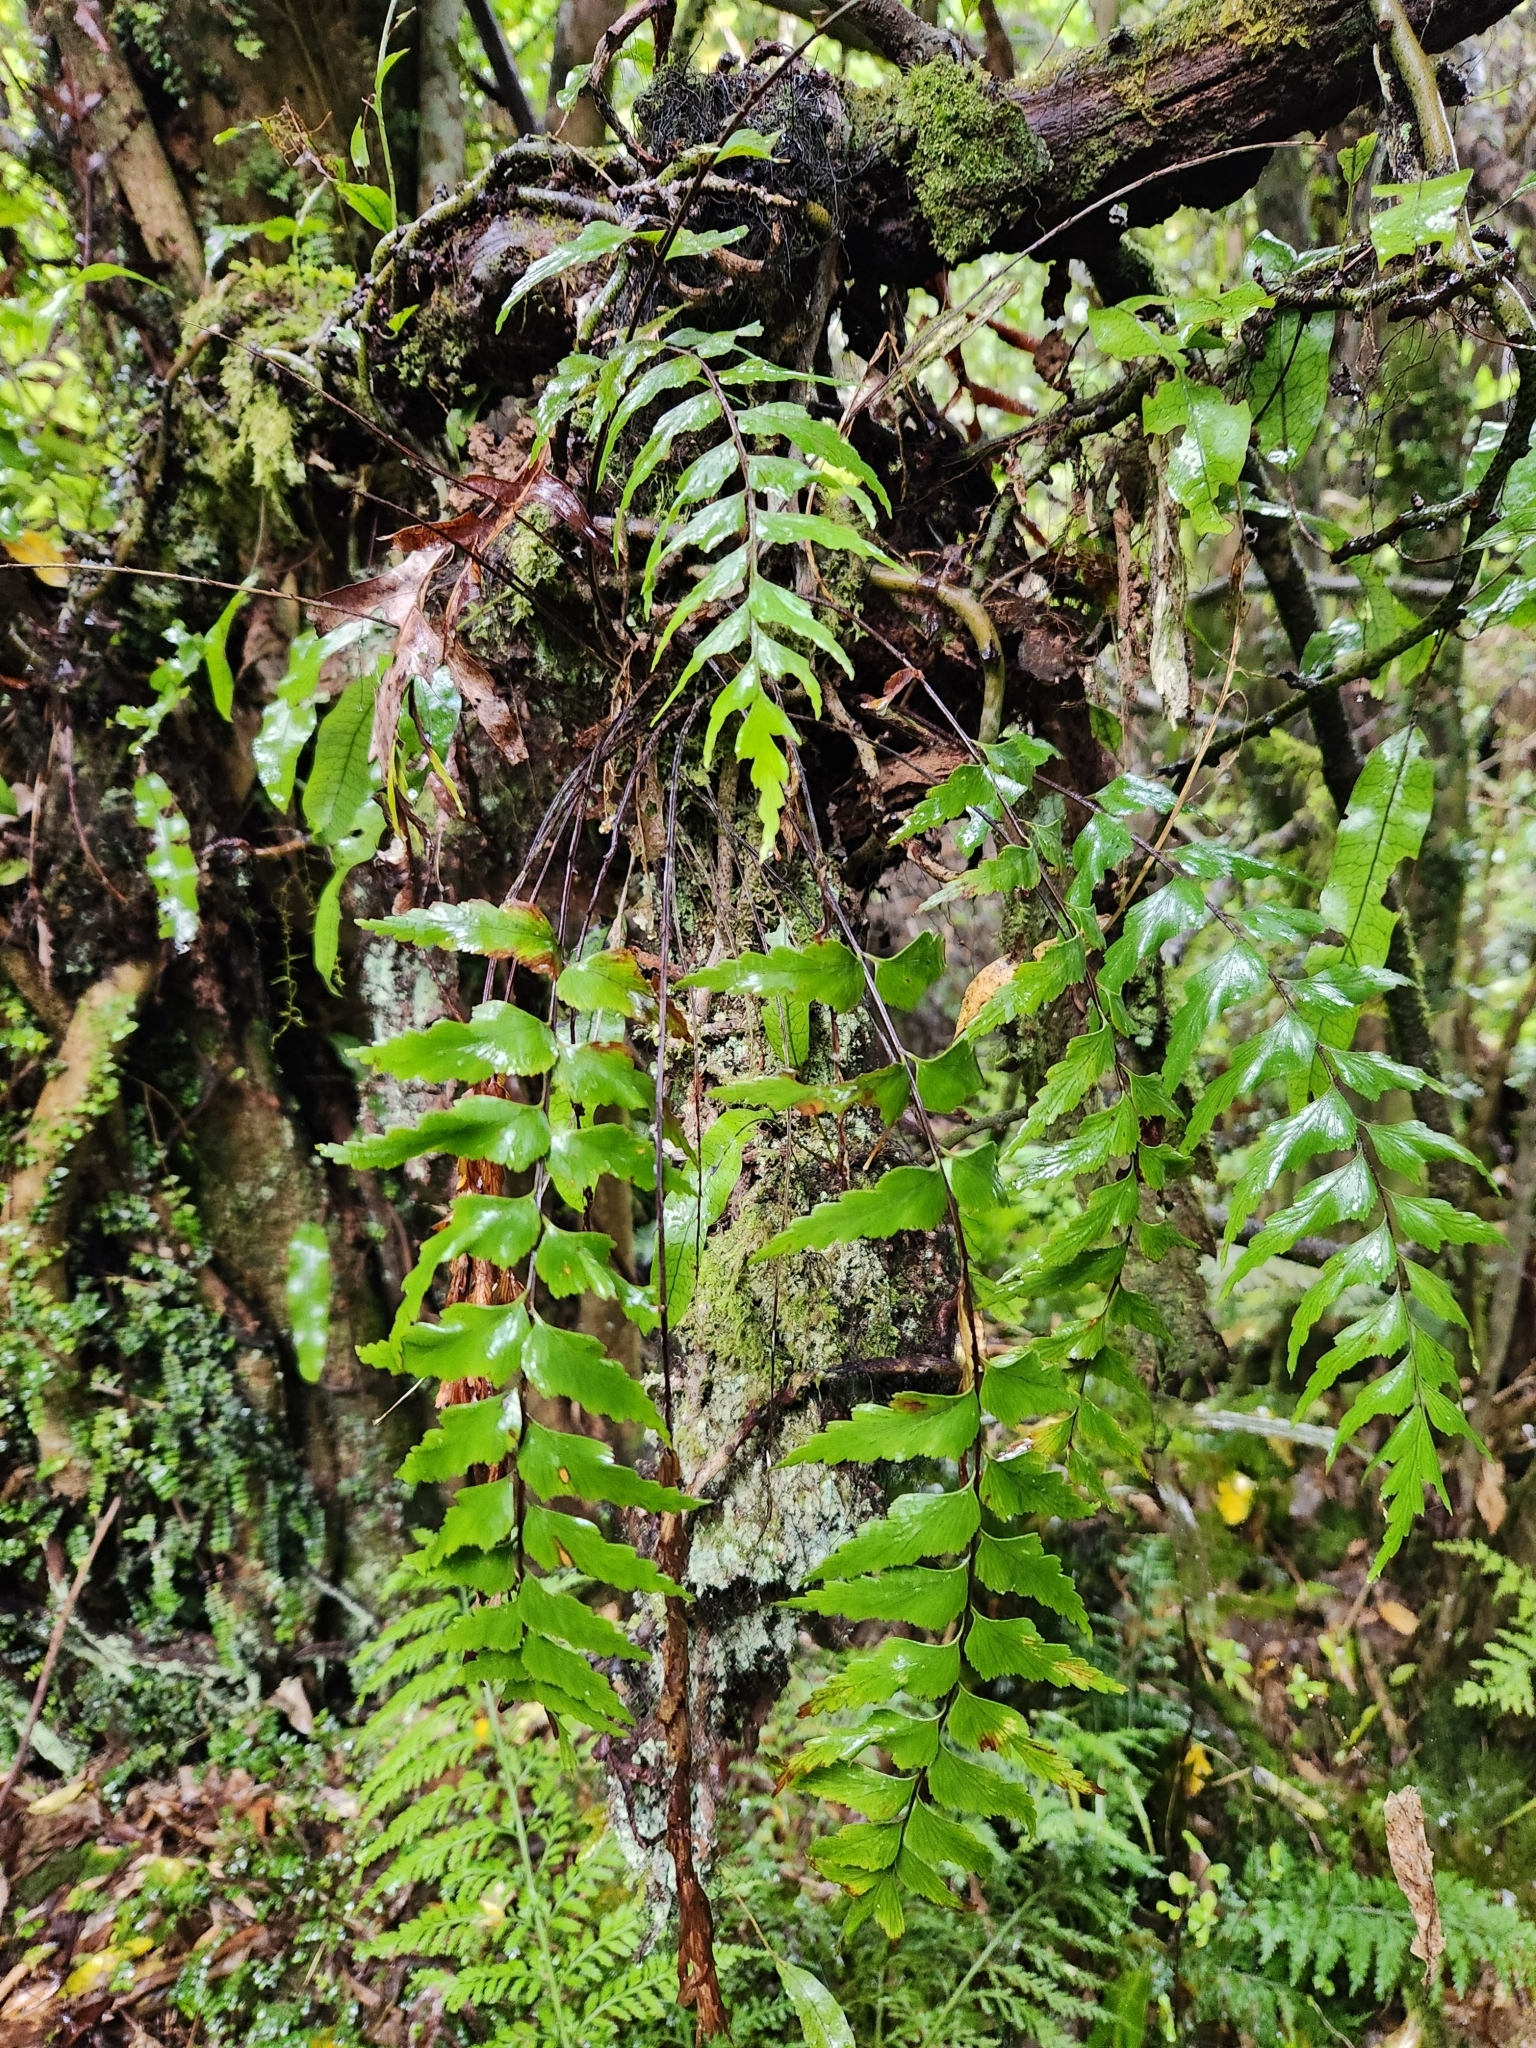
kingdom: Plantae
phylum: Tracheophyta
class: Polypodiopsida
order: Polypodiales
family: Aspleniaceae
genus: Asplenium
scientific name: Asplenium polyodon
